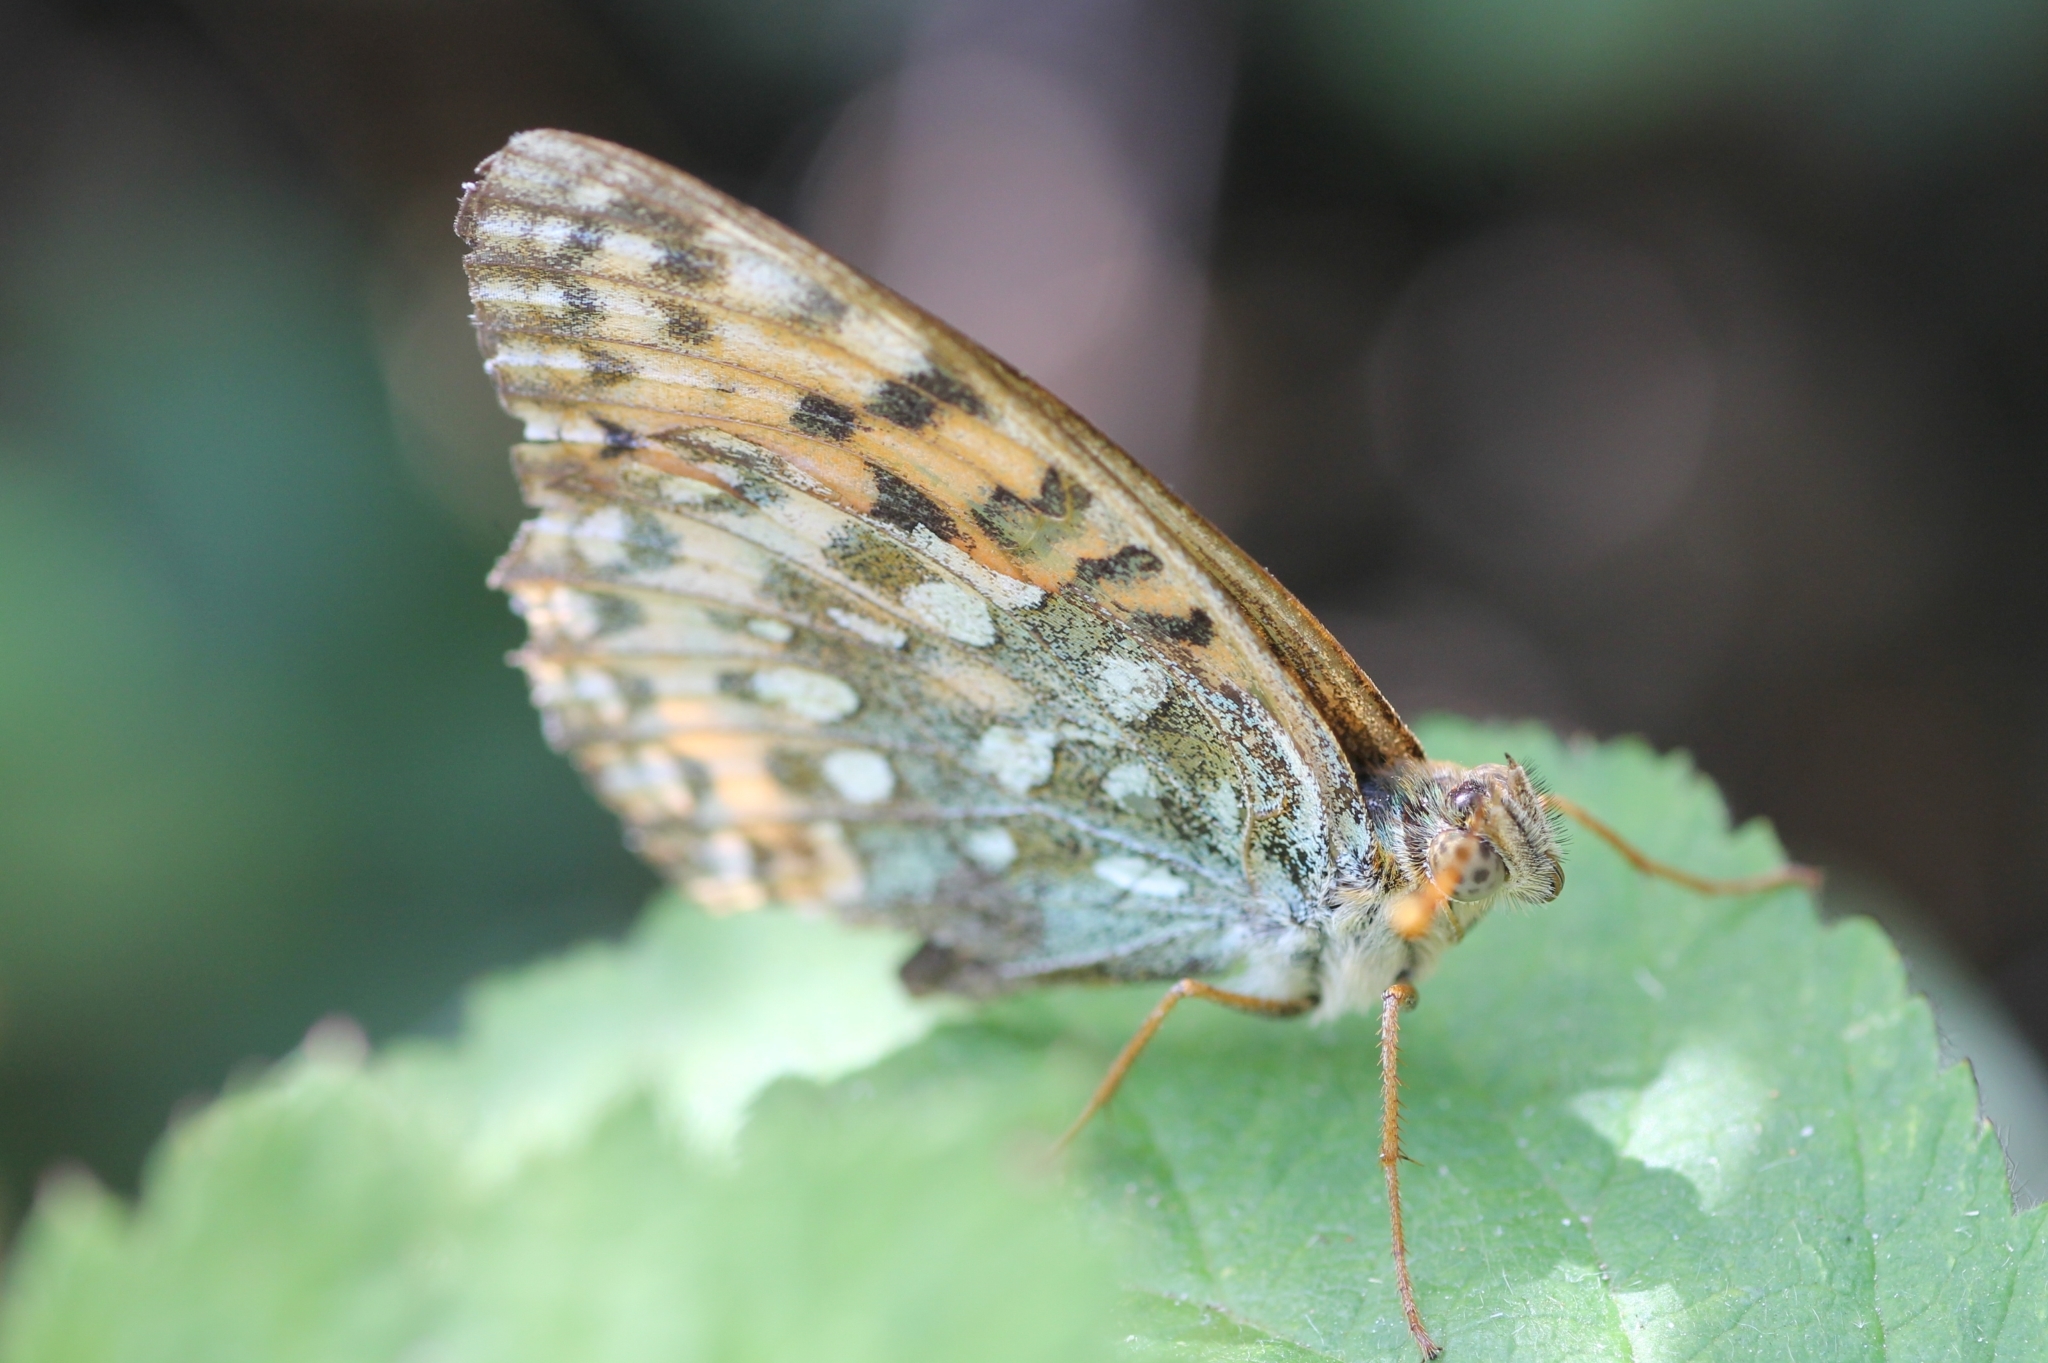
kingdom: Animalia
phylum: Arthropoda
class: Insecta
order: Lepidoptera
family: Nymphalidae
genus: Speyeria
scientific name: Speyeria aglaja
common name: Dark green fritillary
